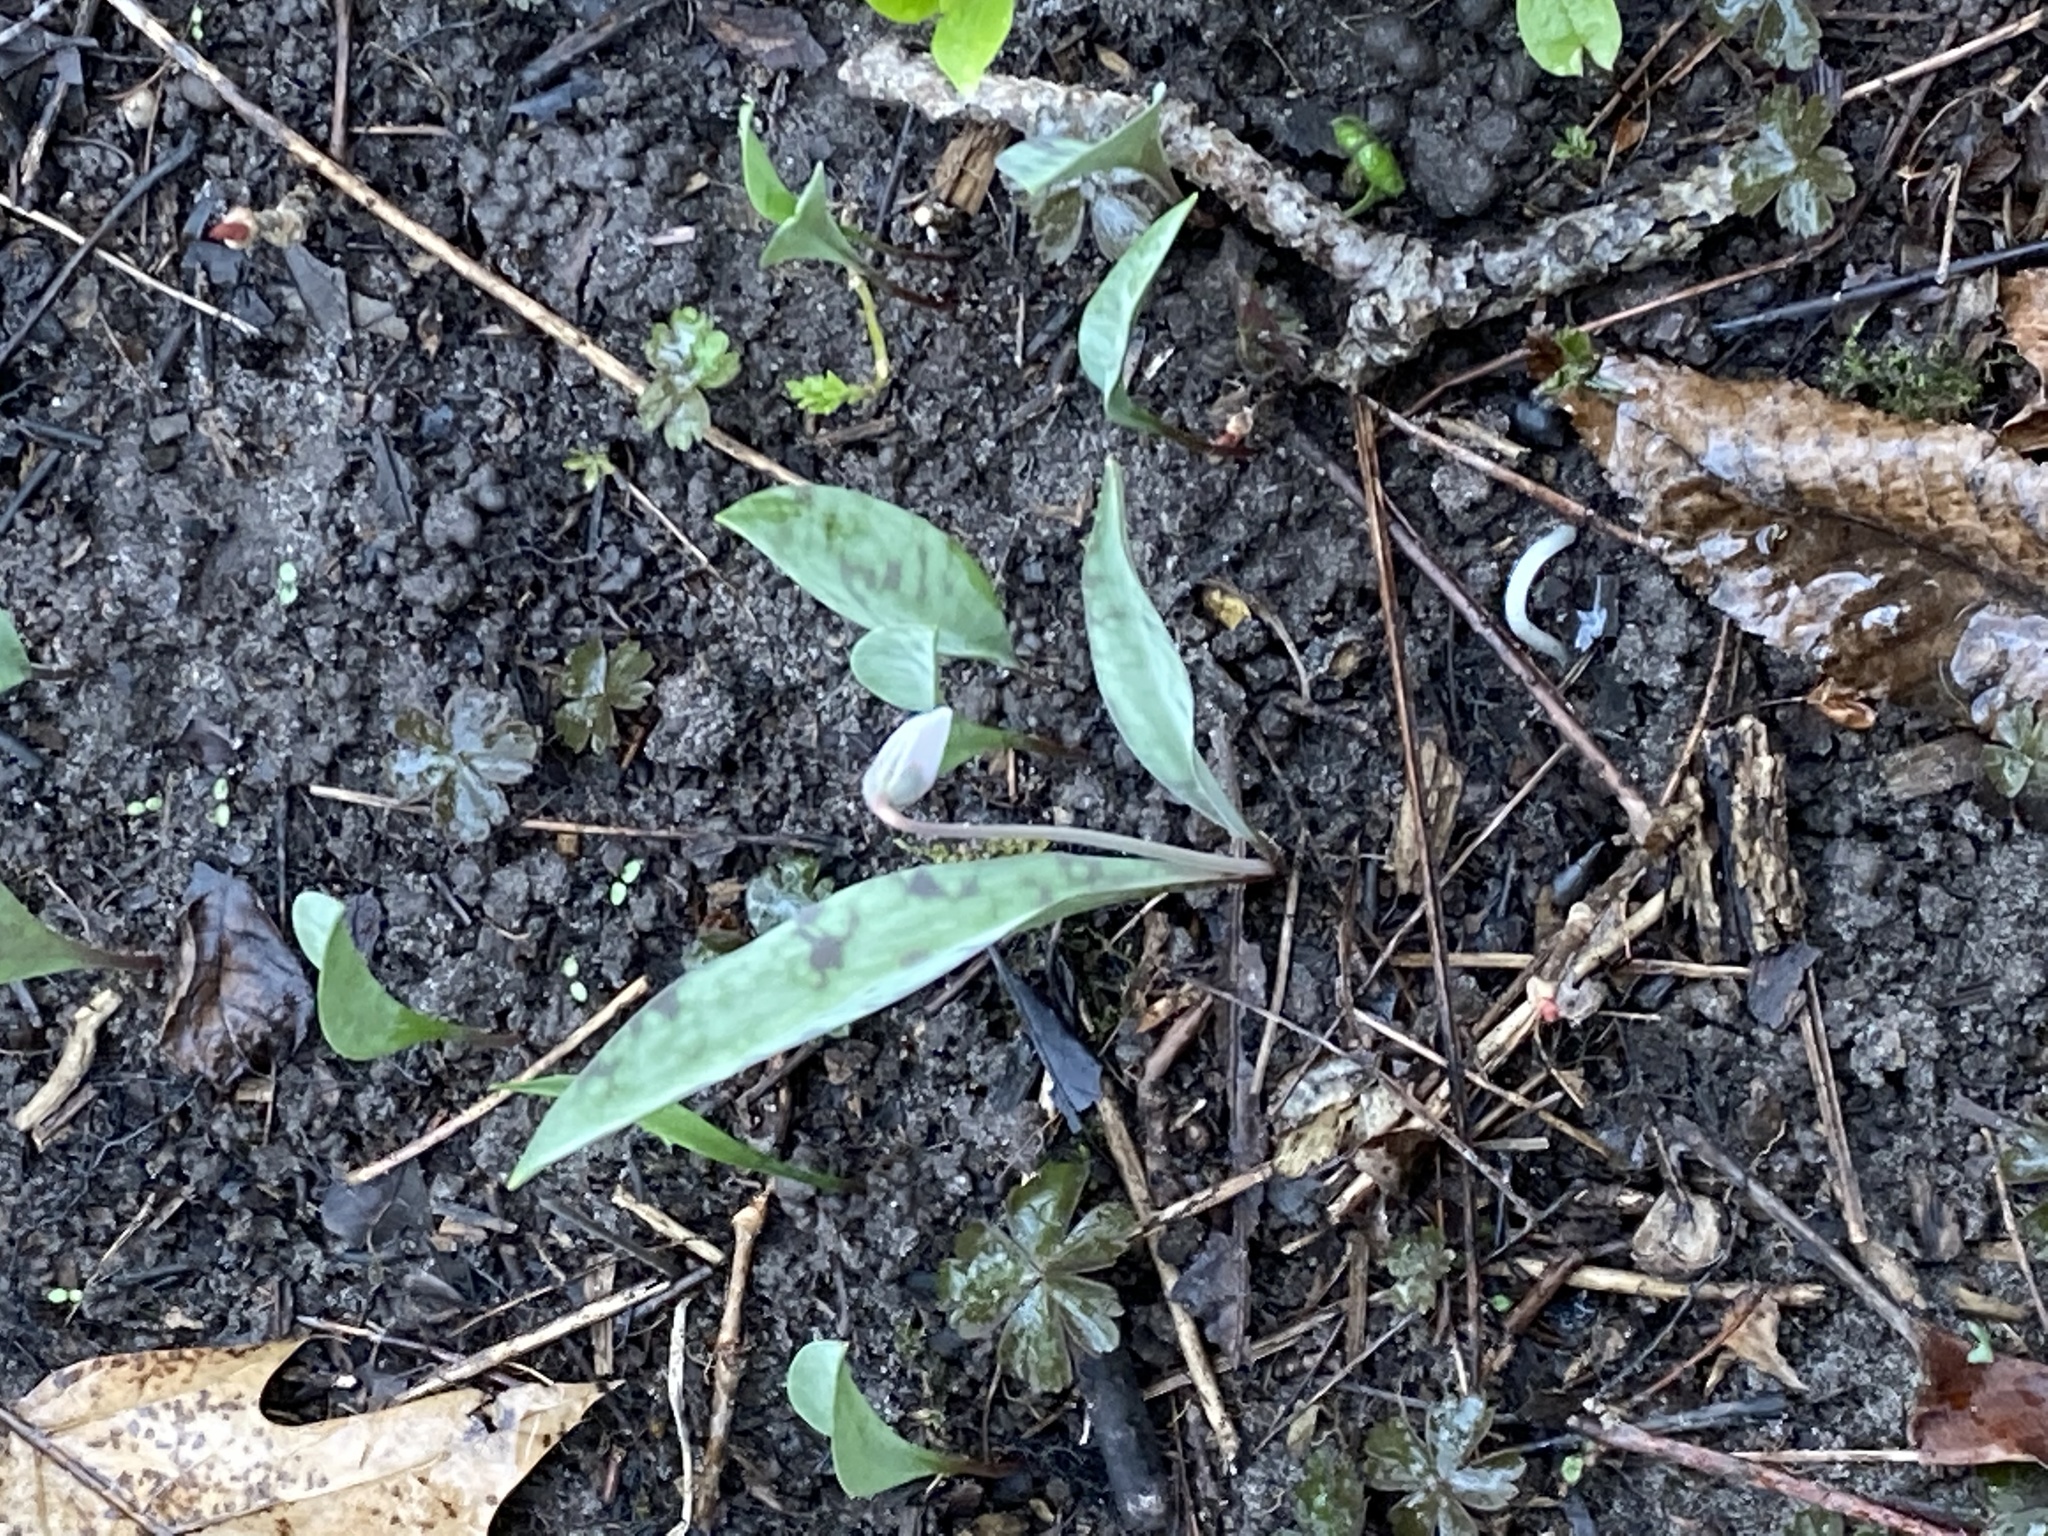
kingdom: Plantae
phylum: Tracheophyta
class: Liliopsida
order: Liliales
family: Liliaceae
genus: Erythronium
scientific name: Erythronium albidum
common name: White trout-lily
